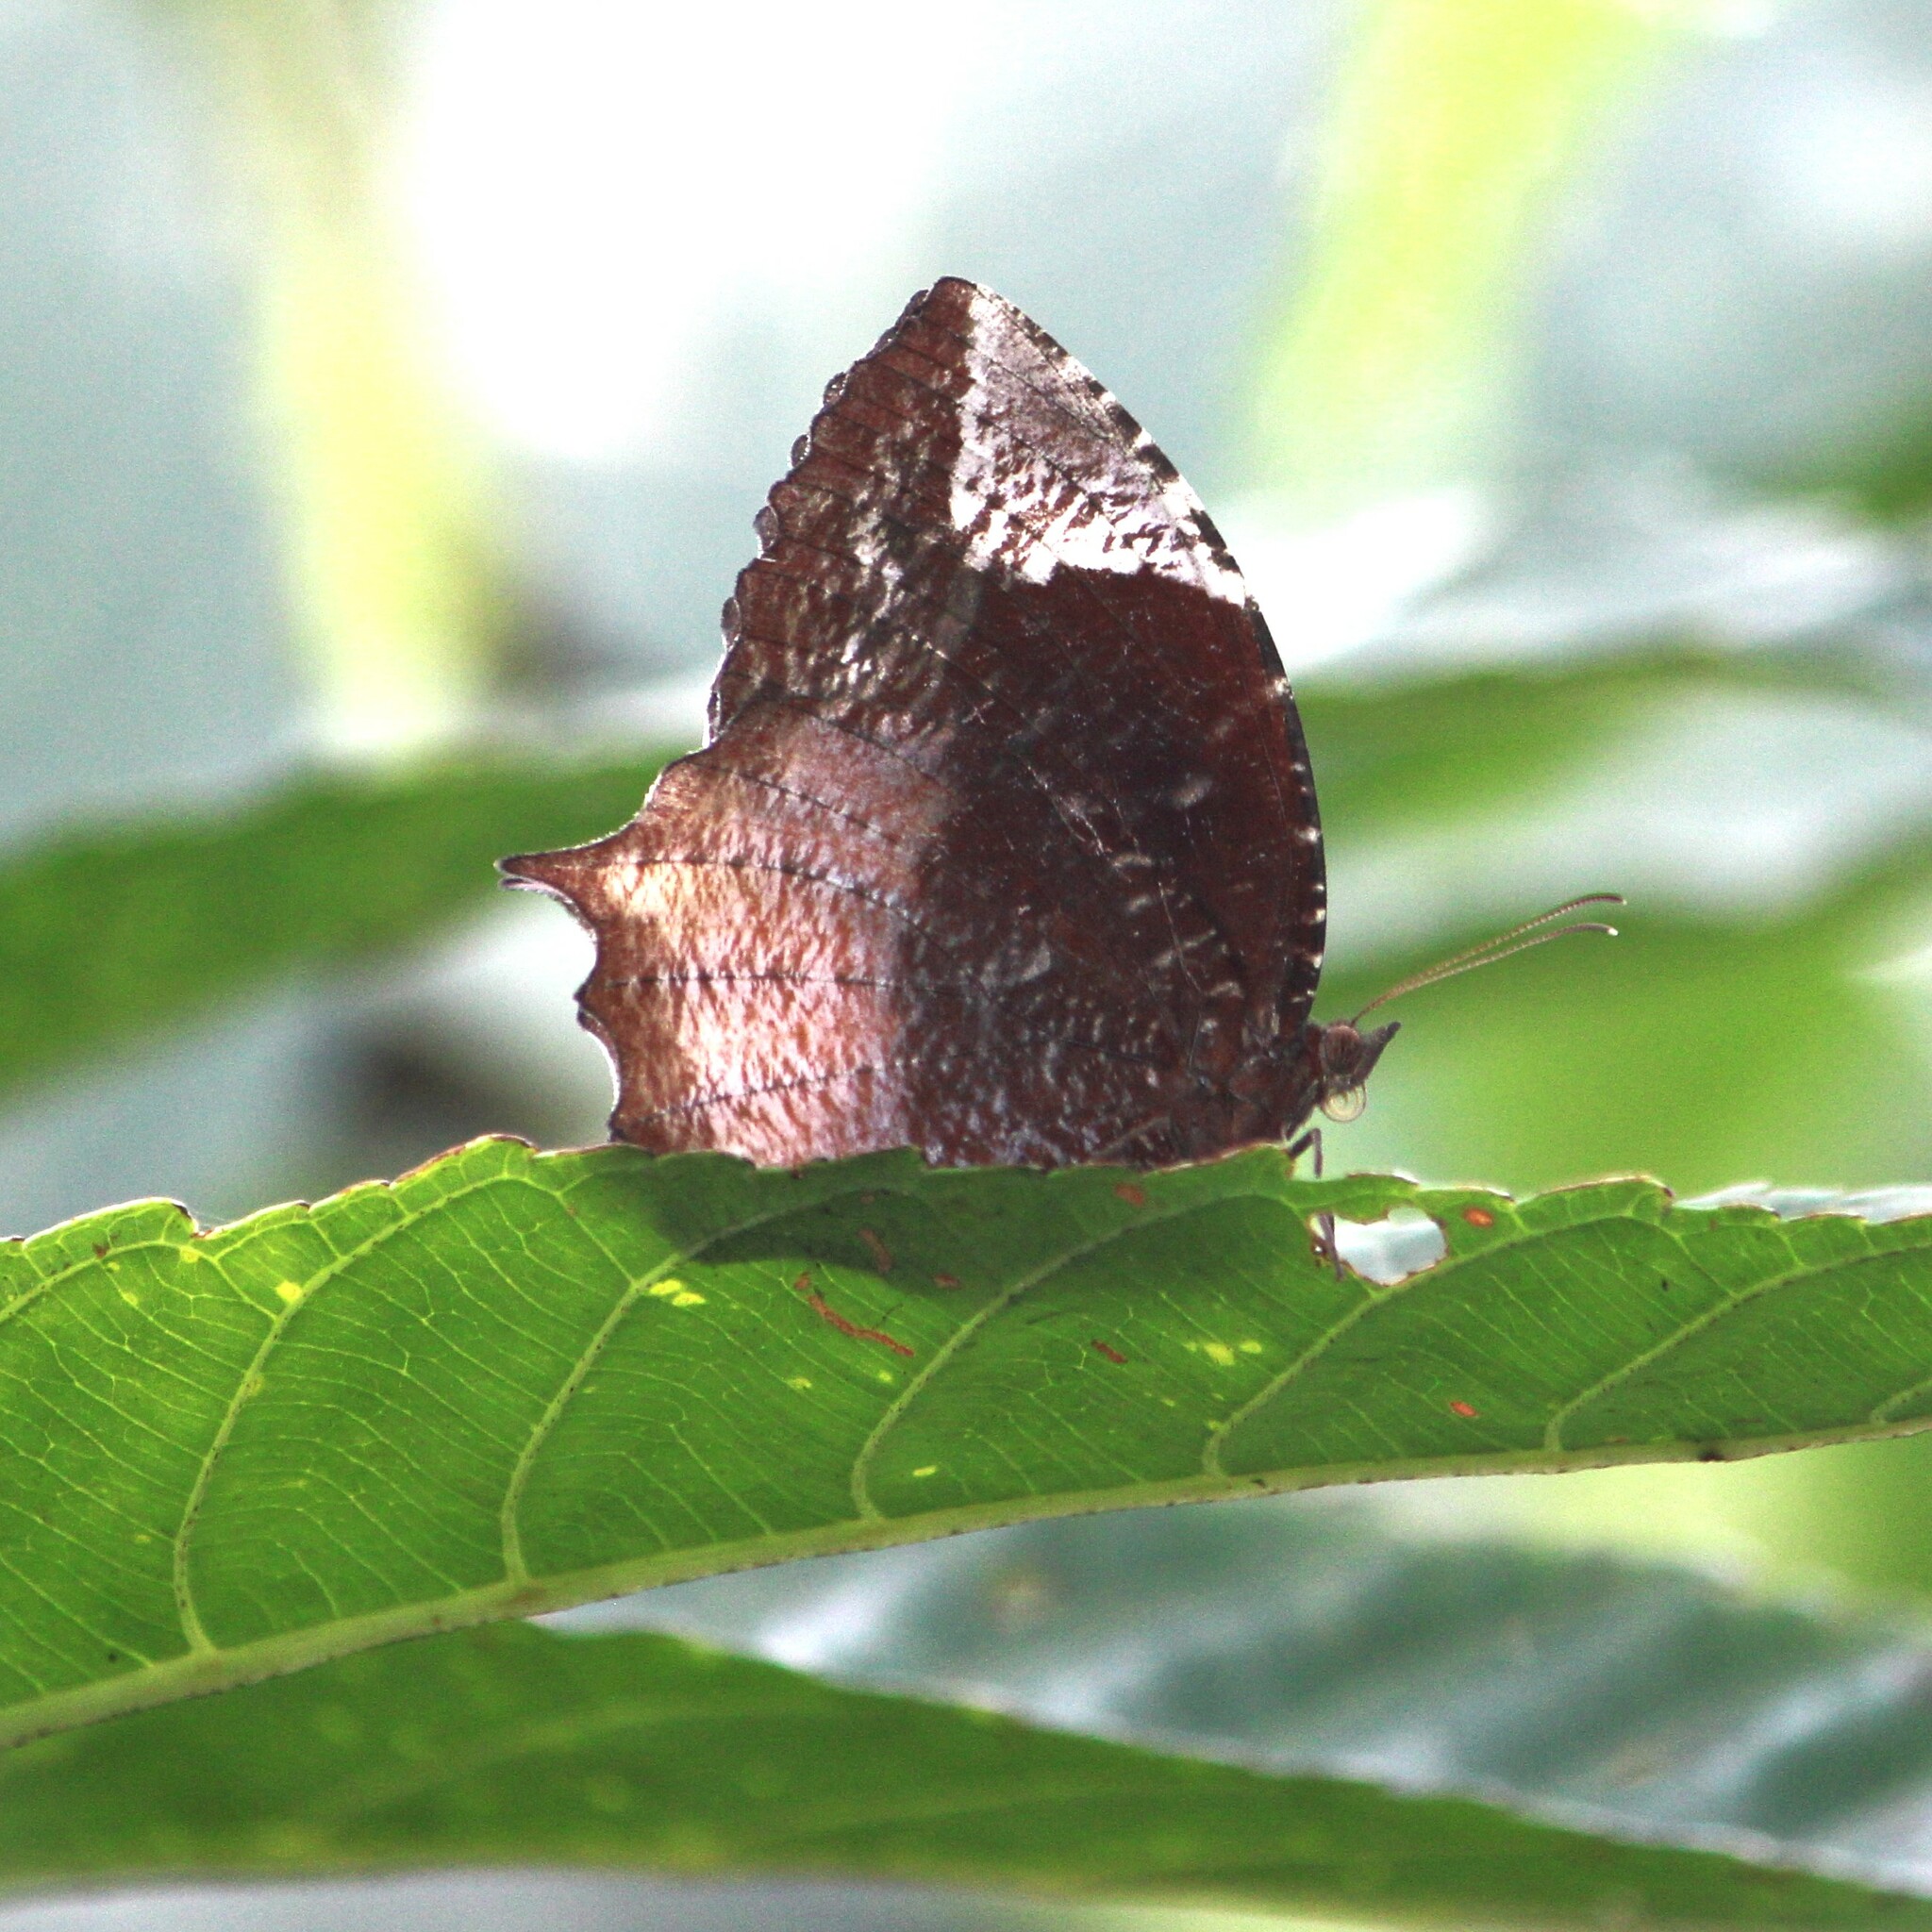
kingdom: Animalia
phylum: Arthropoda
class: Insecta
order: Lepidoptera
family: Nymphalidae
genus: Elymnias
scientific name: Elymnias caudata
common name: Tailed palmfly
